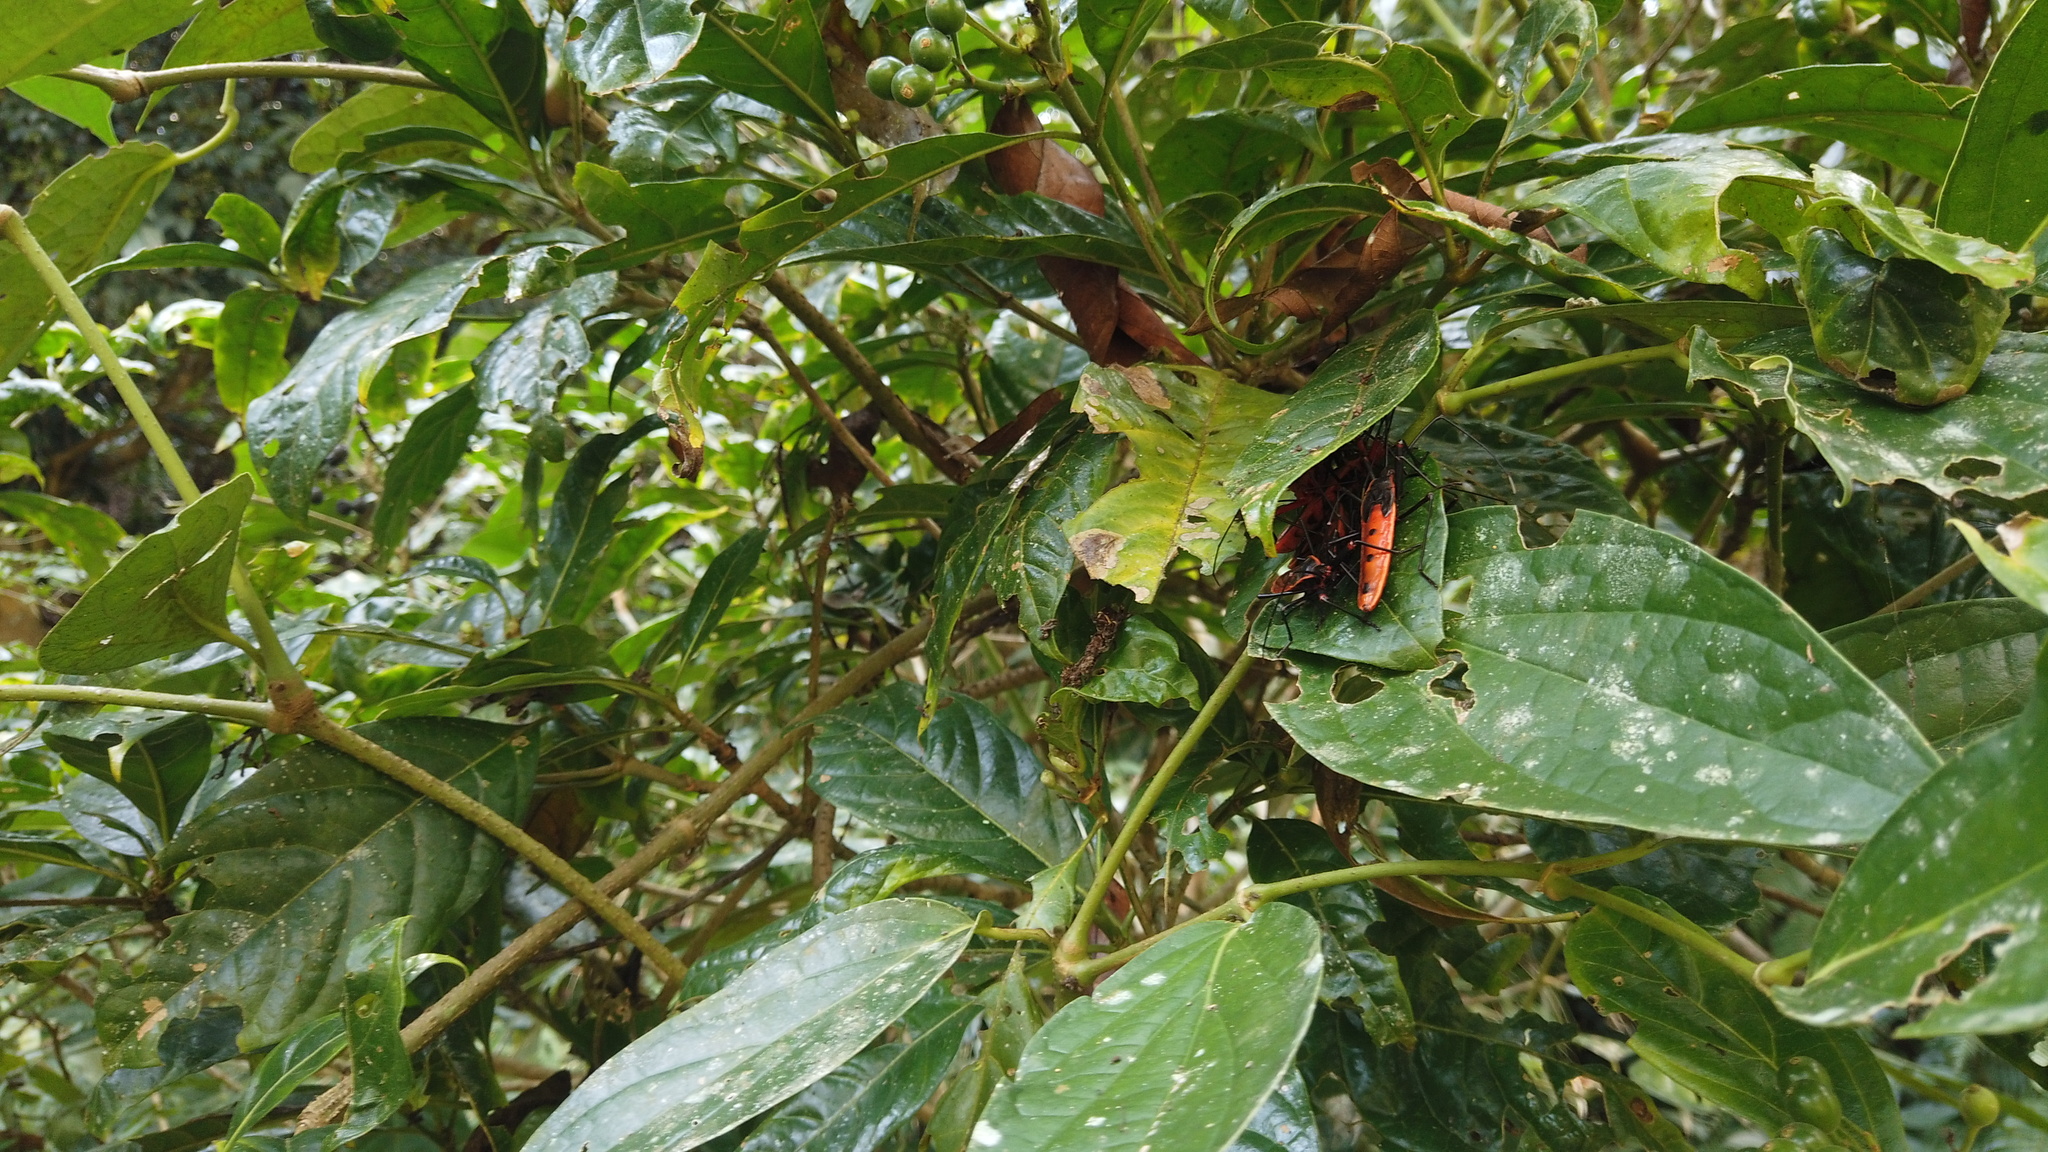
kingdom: Animalia
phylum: Arthropoda
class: Insecta
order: Hemiptera
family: Largidae
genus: Macrocheraia
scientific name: Macrocheraia grandis
